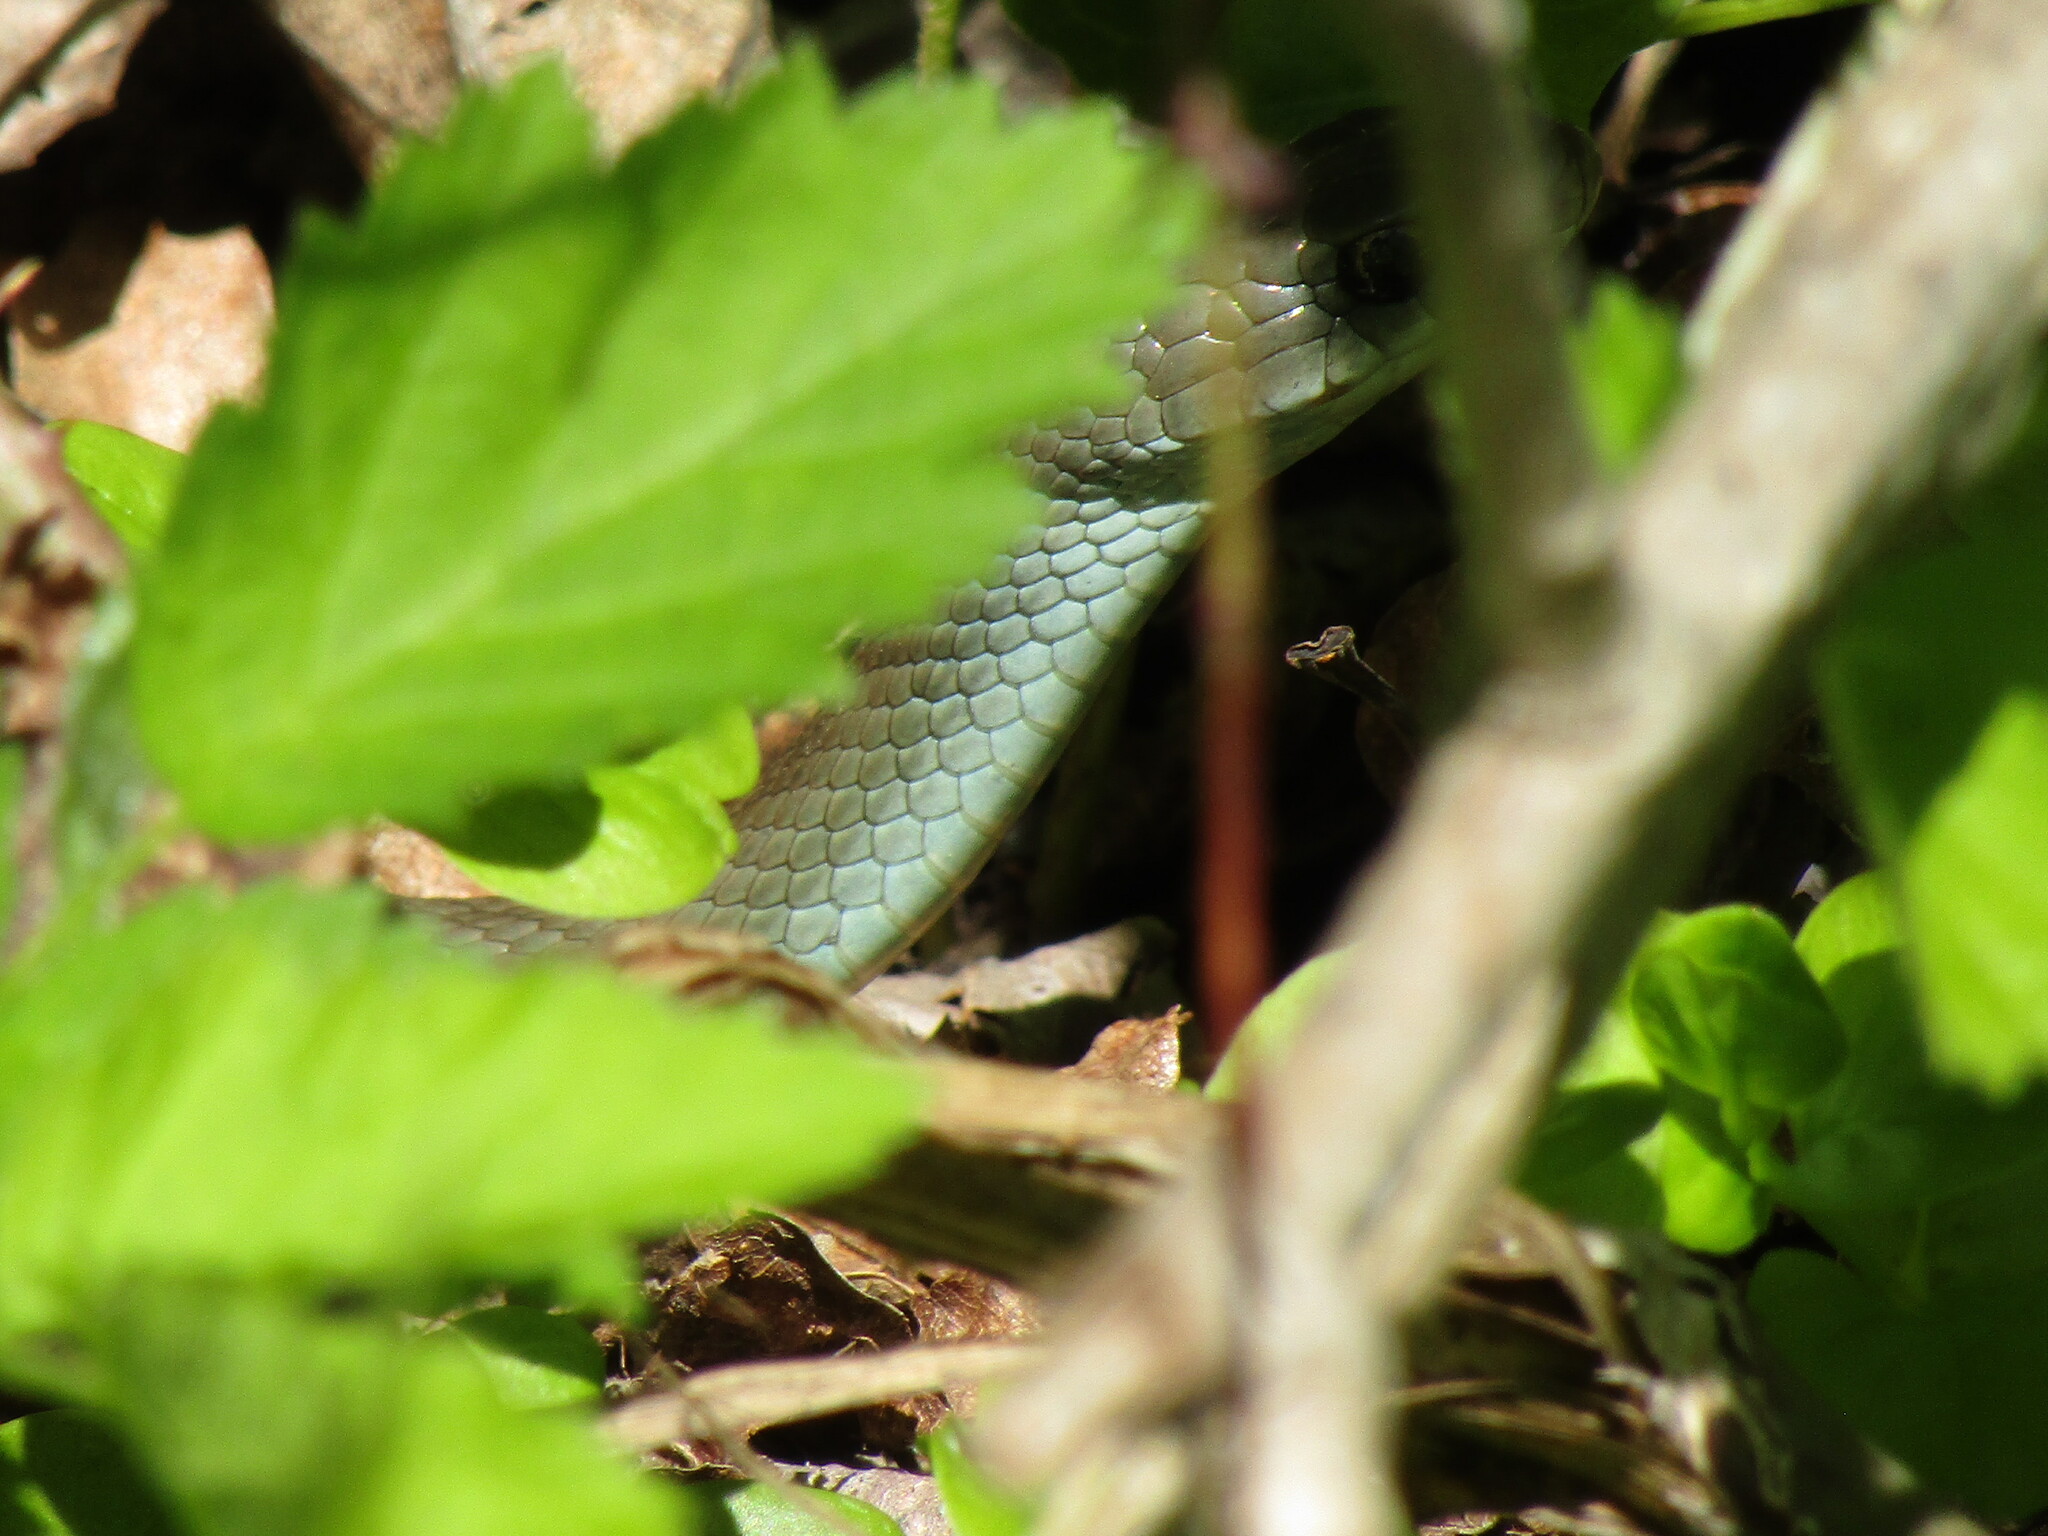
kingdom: Animalia
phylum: Chordata
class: Squamata
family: Colubridae
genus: Coluber
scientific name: Coluber constrictor
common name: Eastern racer
